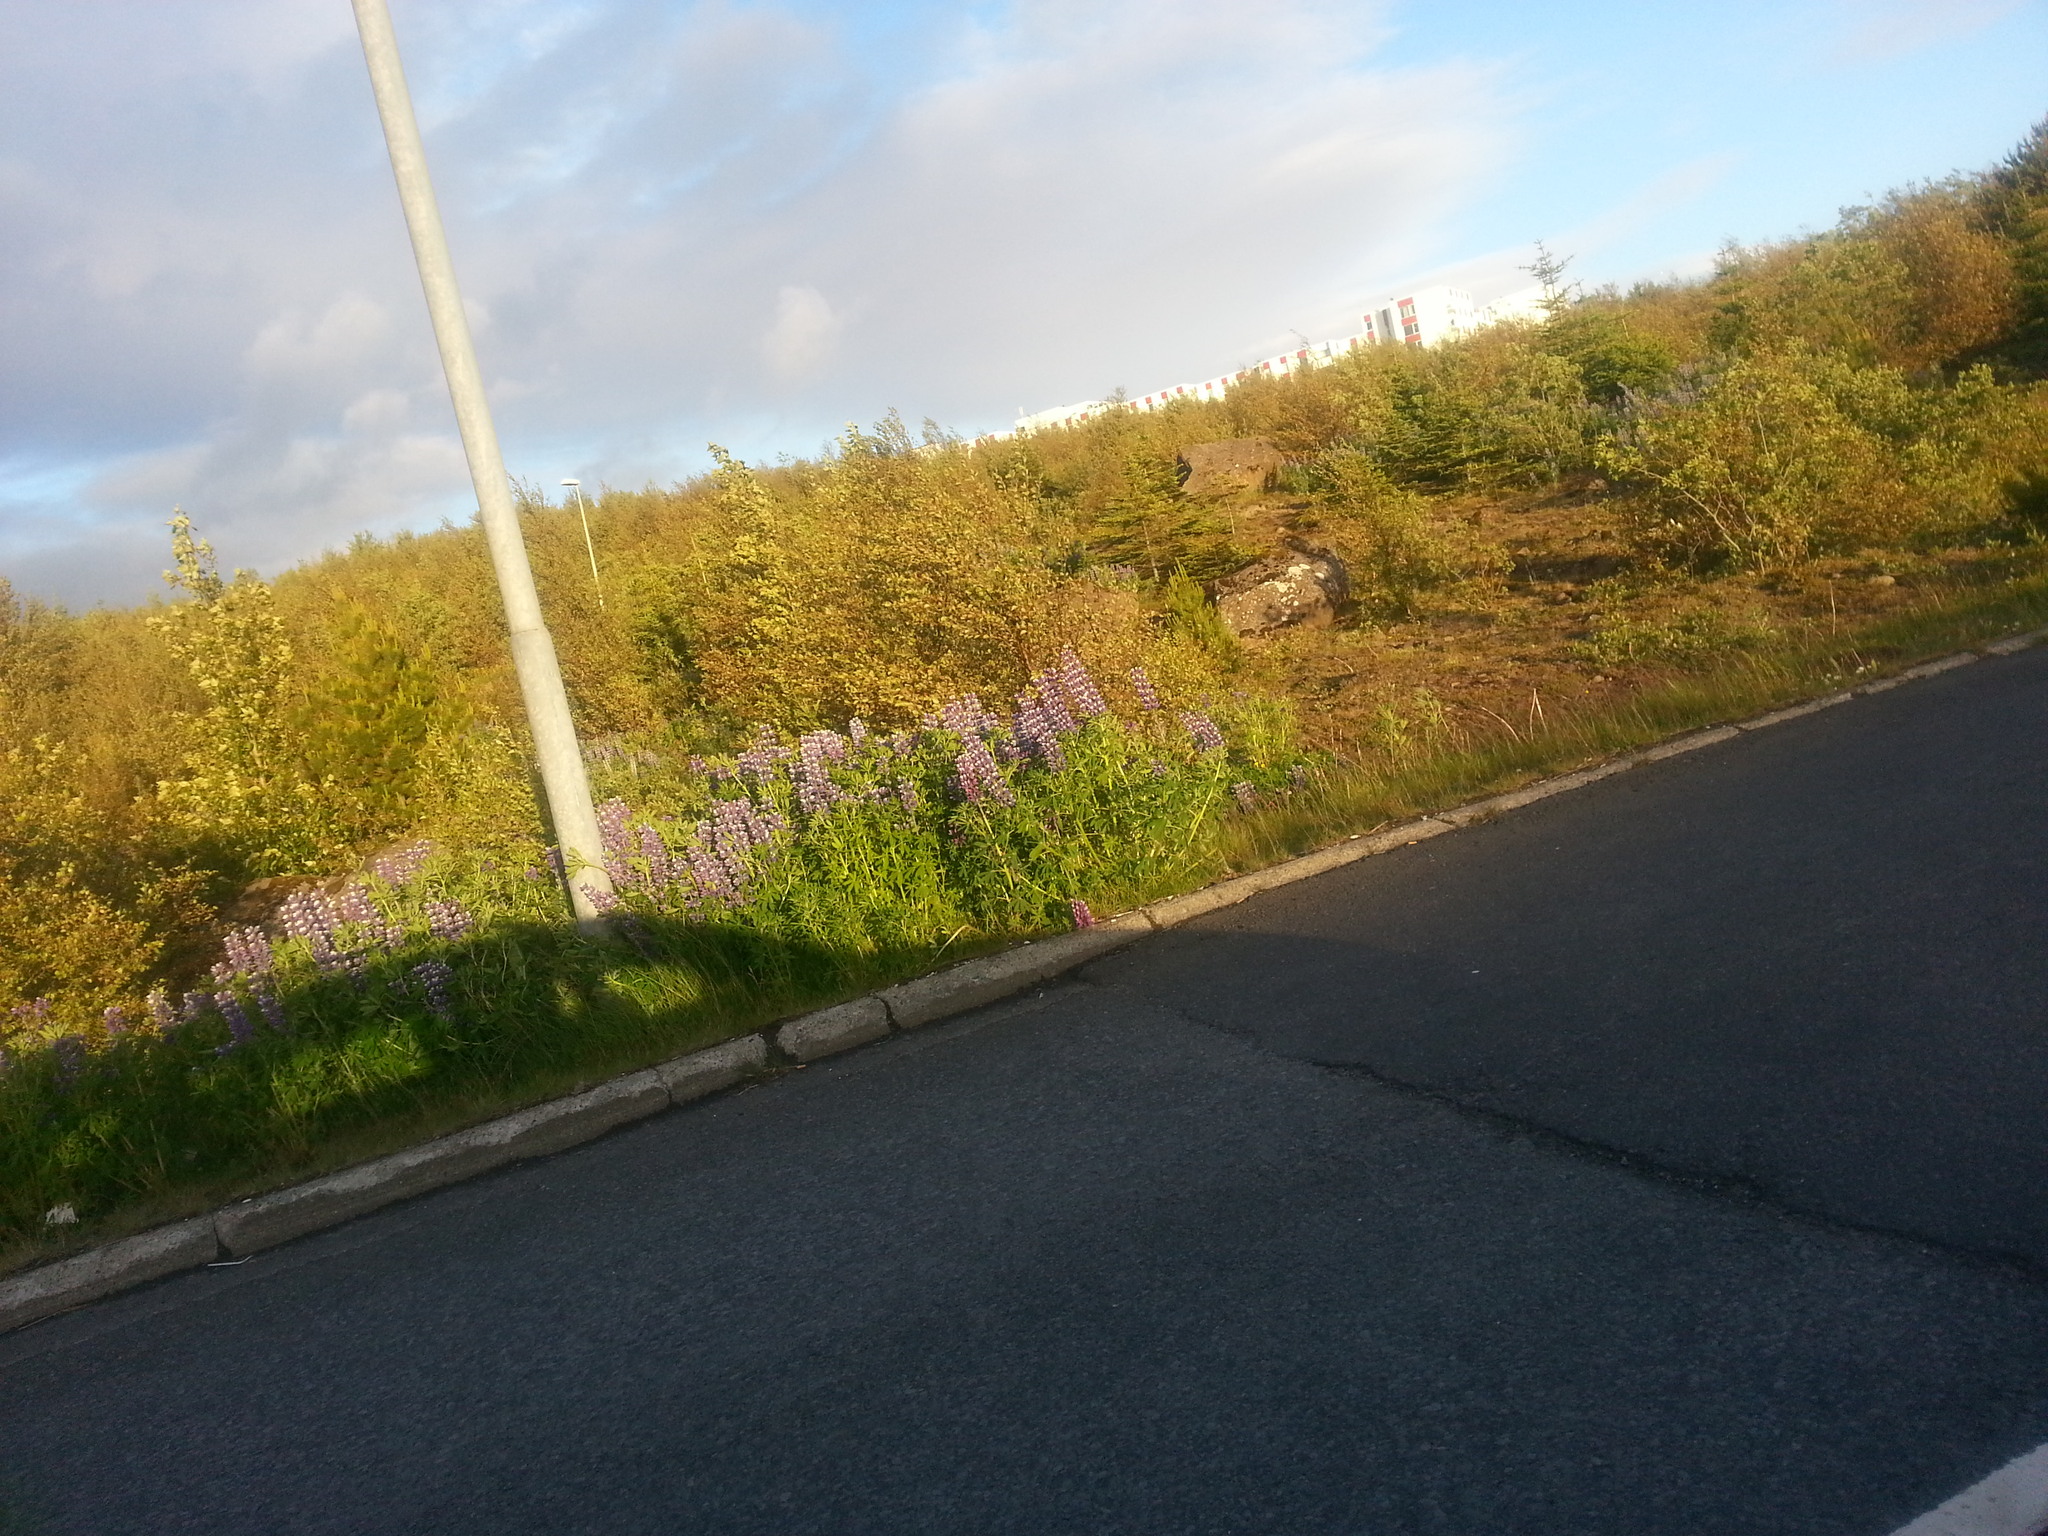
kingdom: Plantae
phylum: Tracheophyta
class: Magnoliopsida
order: Fabales
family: Fabaceae
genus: Lupinus
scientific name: Lupinus nootkatensis
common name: Nootka lupine
